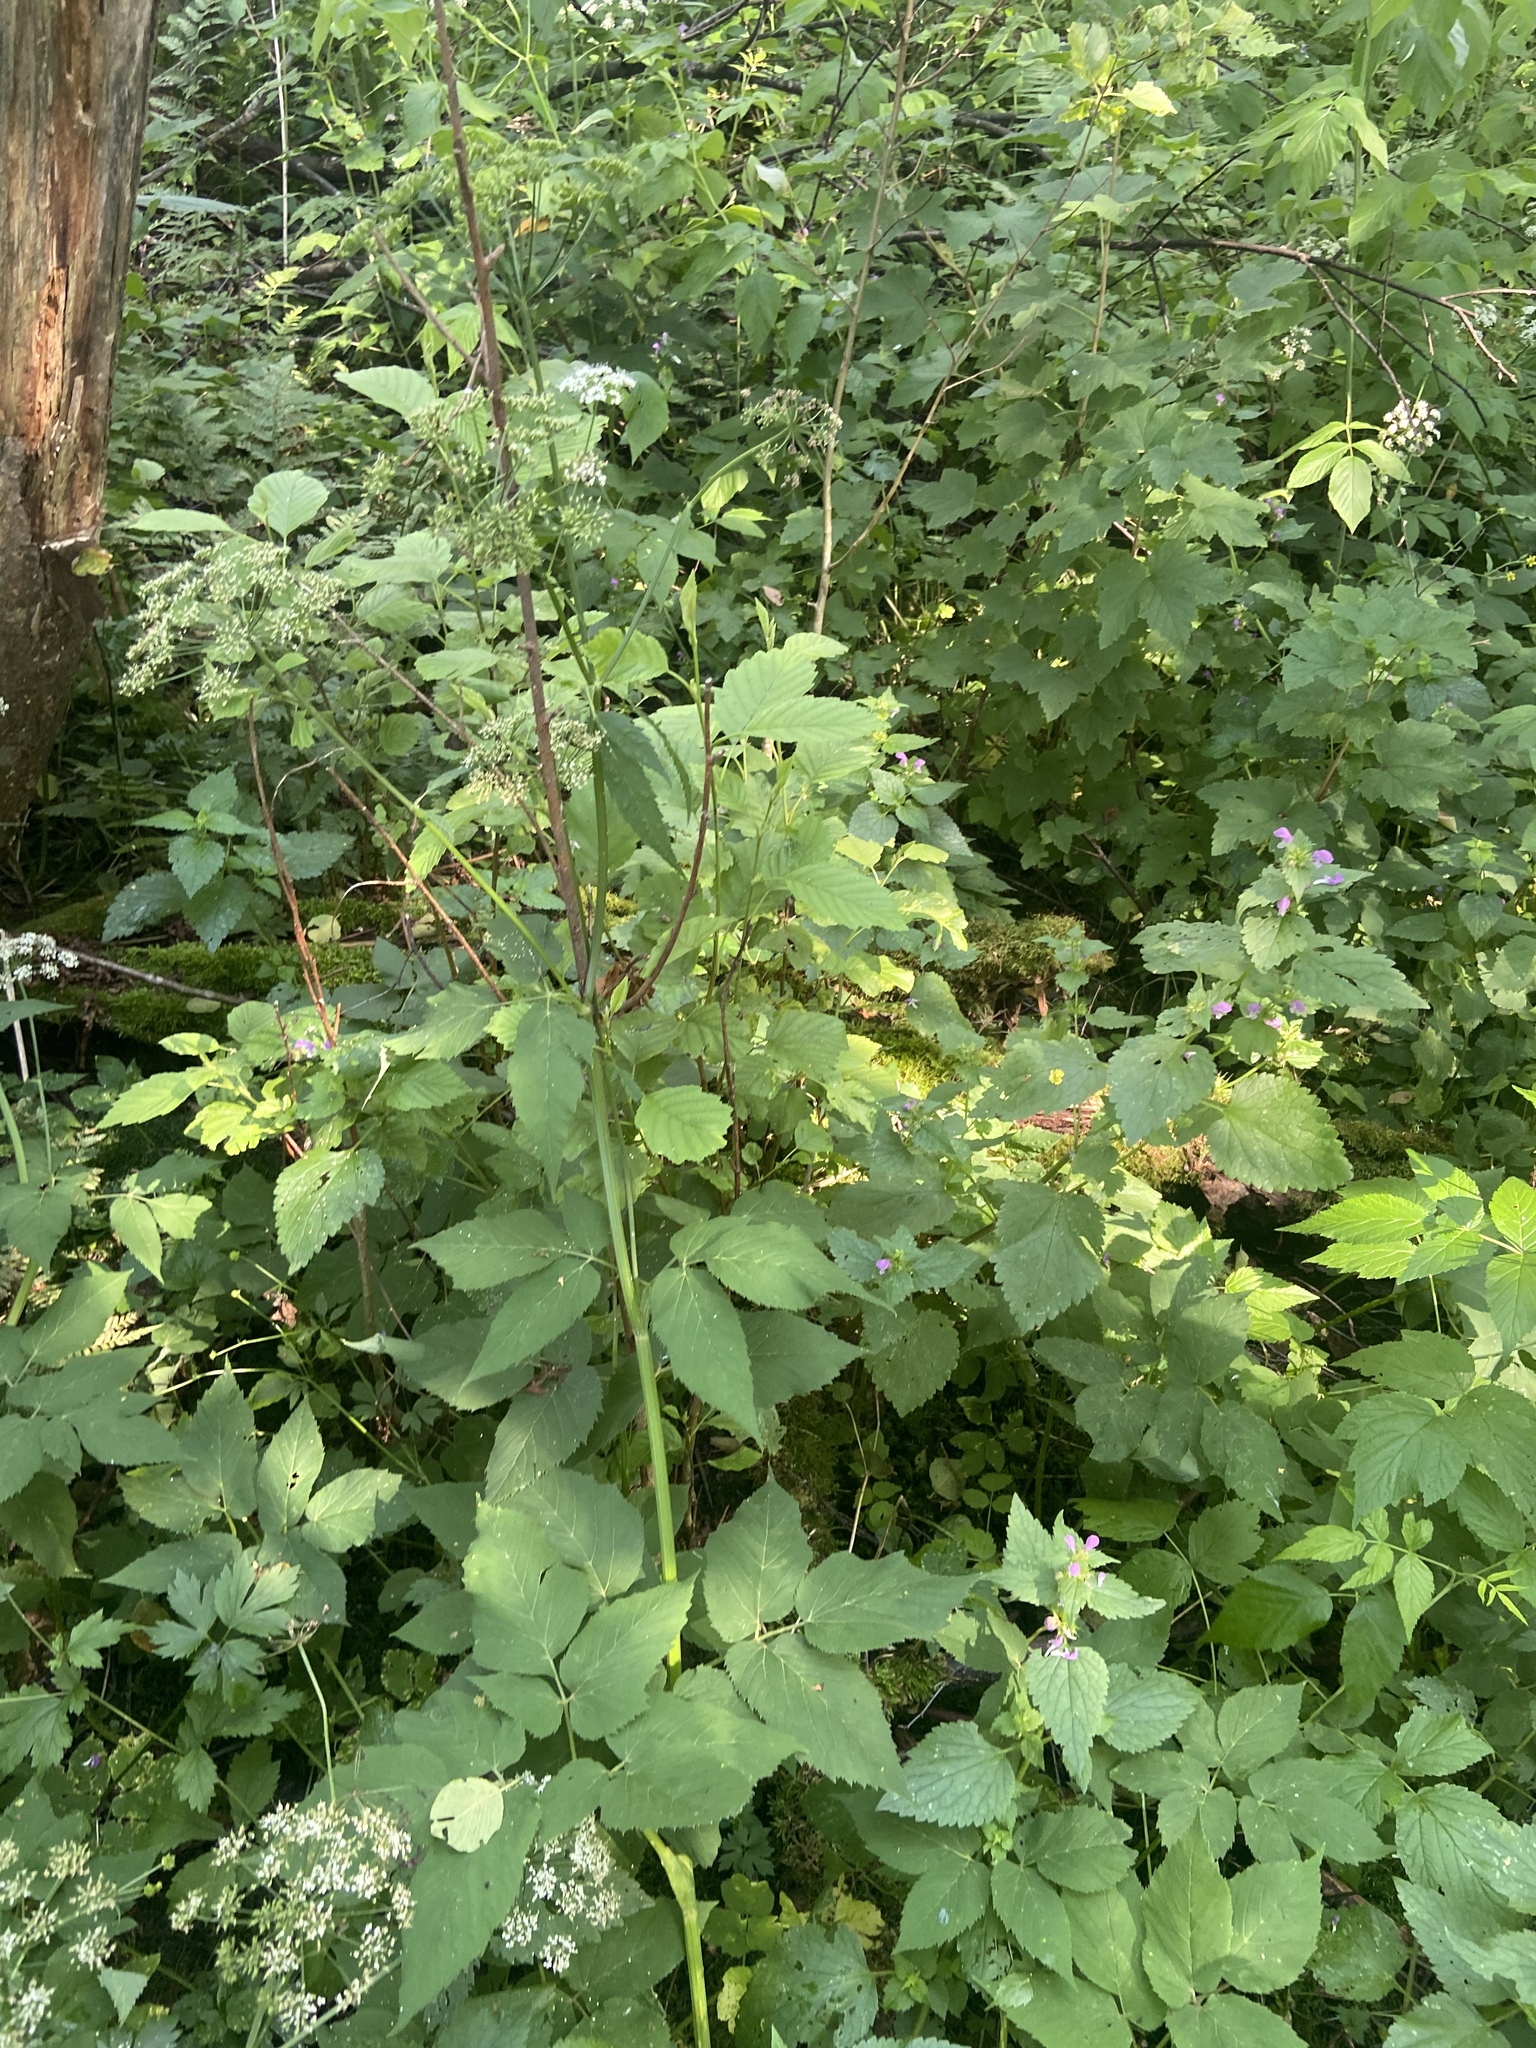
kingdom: Plantae
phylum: Tracheophyta
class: Magnoliopsida
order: Apiales
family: Apiaceae
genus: Aegopodium
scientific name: Aegopodium podagraria
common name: Ground-elder
